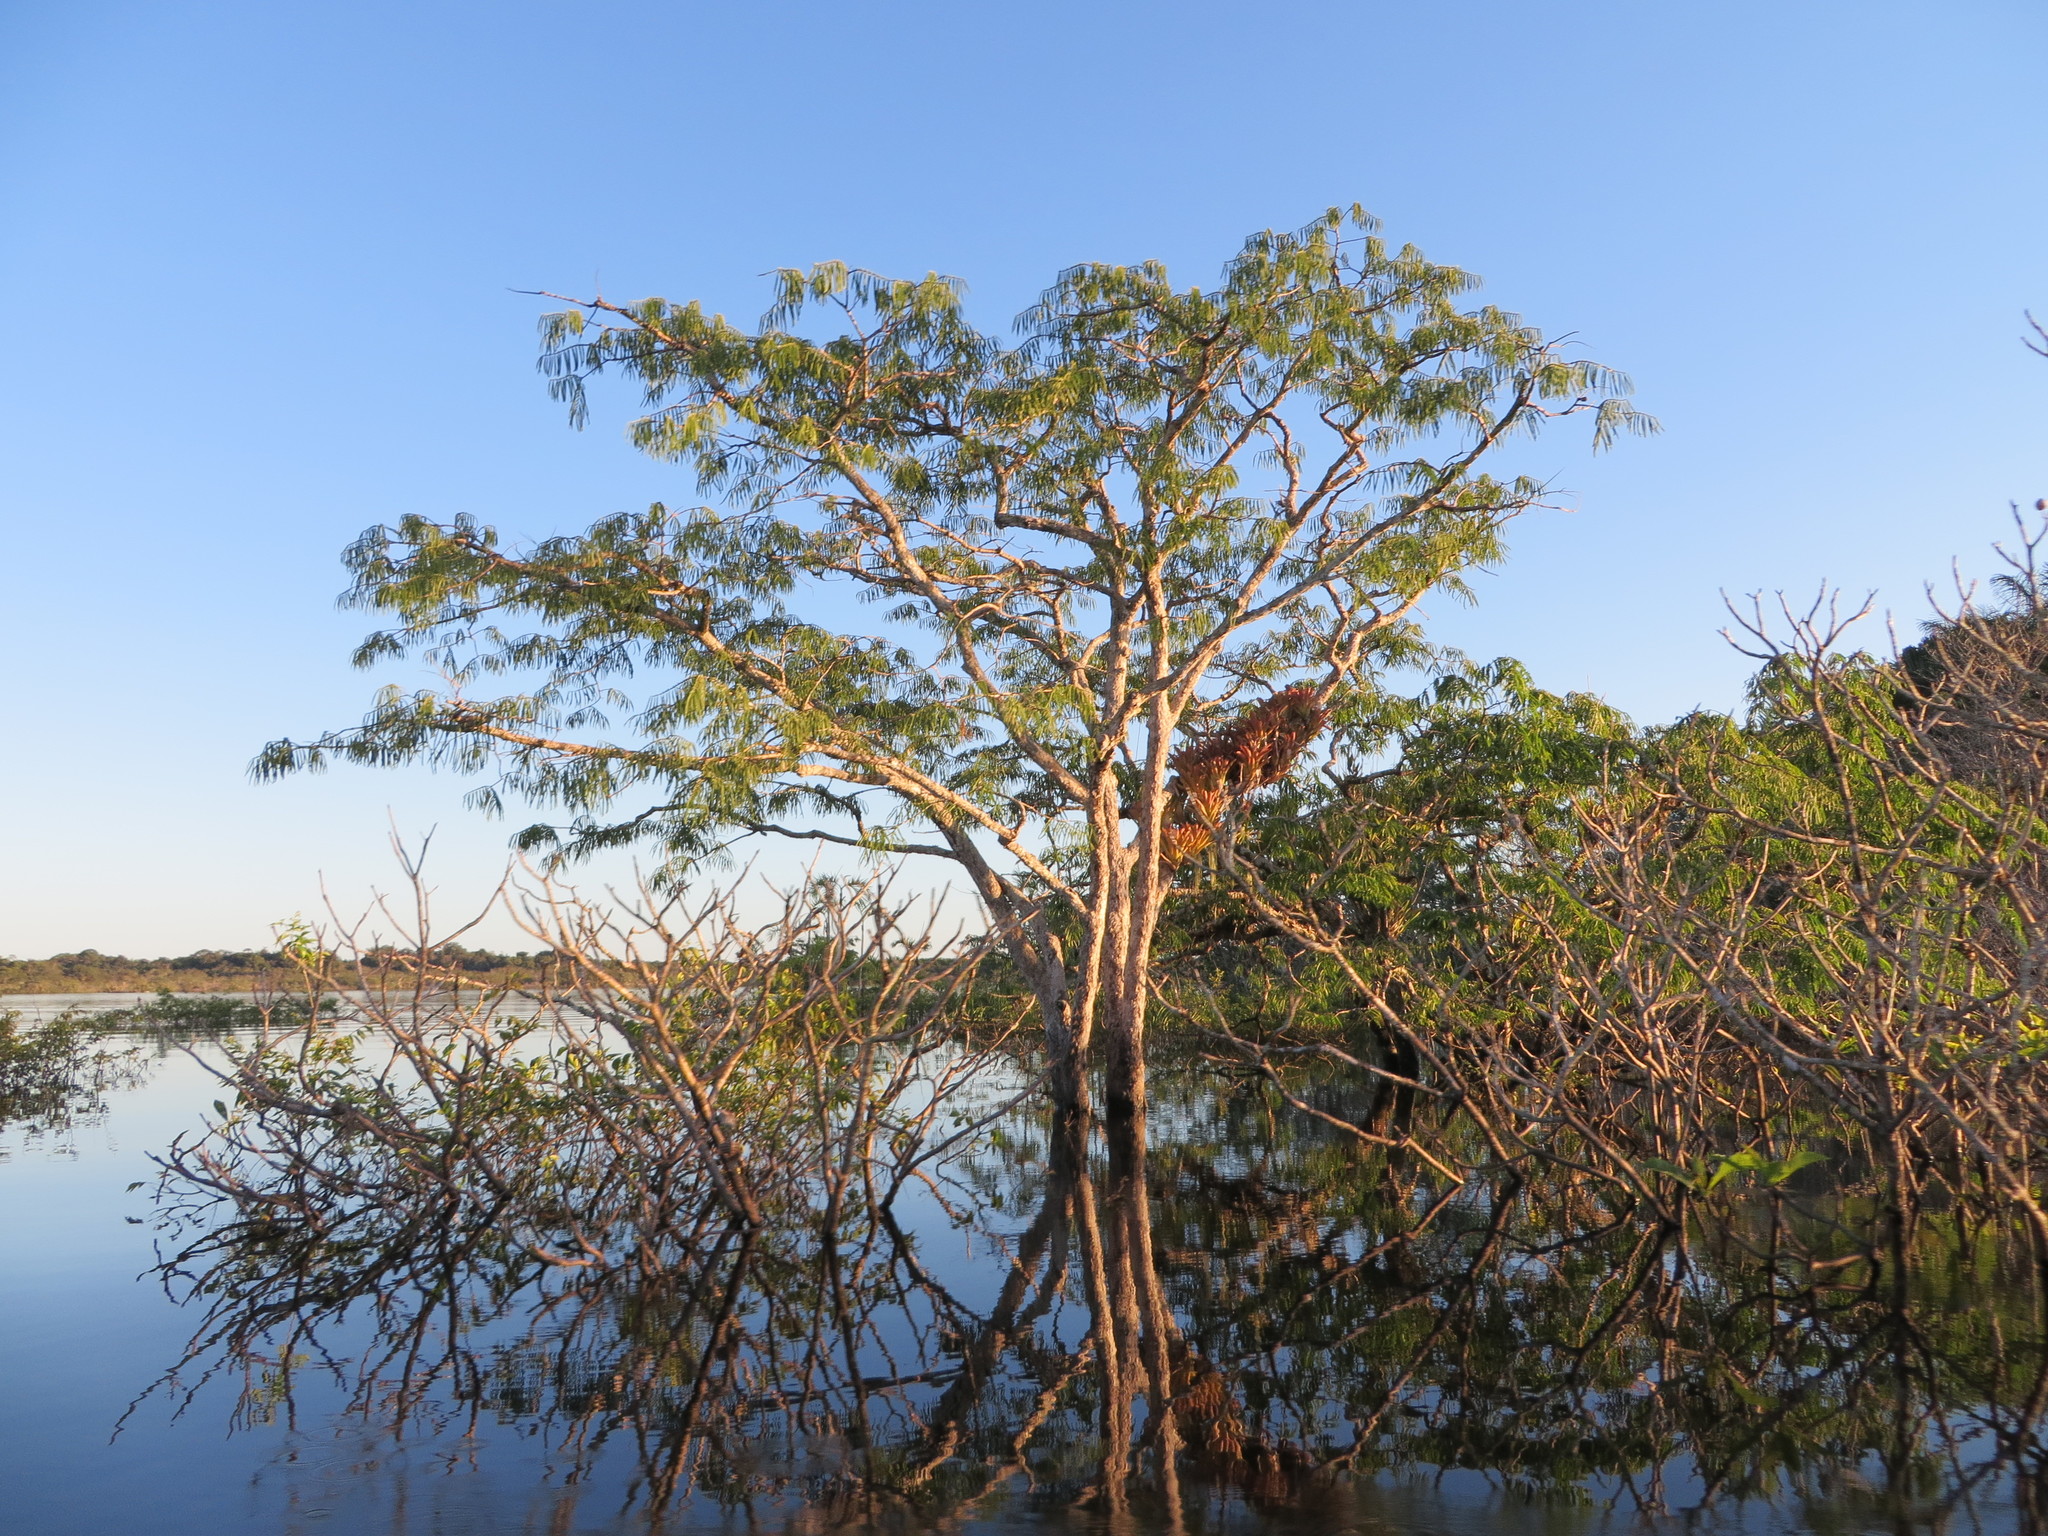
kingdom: Plantae
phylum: Tracheophyta
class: Magnoliopsida
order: Fabales
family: Fabaceae
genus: Macrolobium
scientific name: Macrolobium acaciifolium
